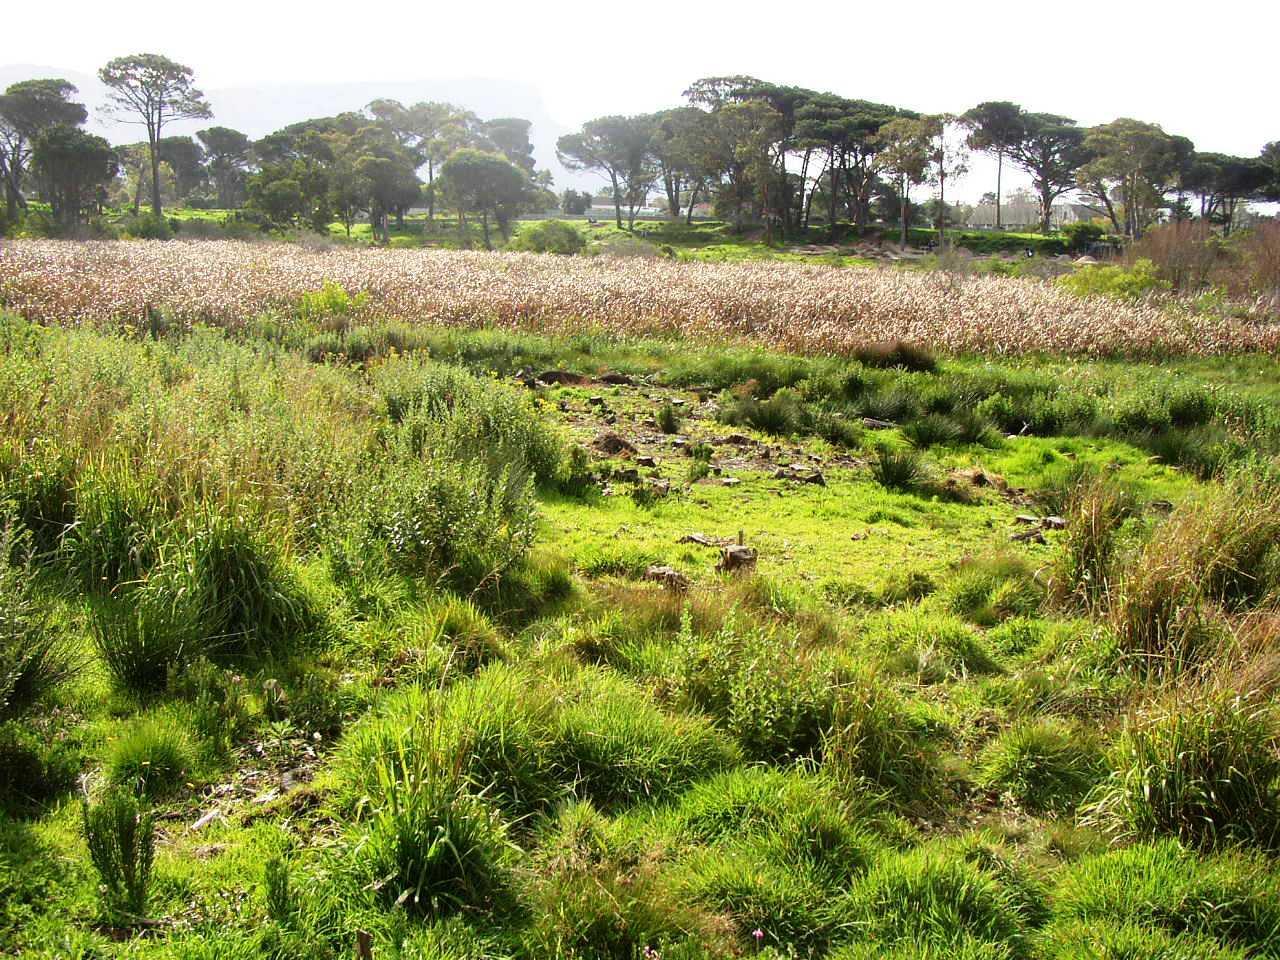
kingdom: Plantae
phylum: Tracheophyta
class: Liliopsida
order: Poales
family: Typhaceae
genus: Typha
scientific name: Typha capensis
